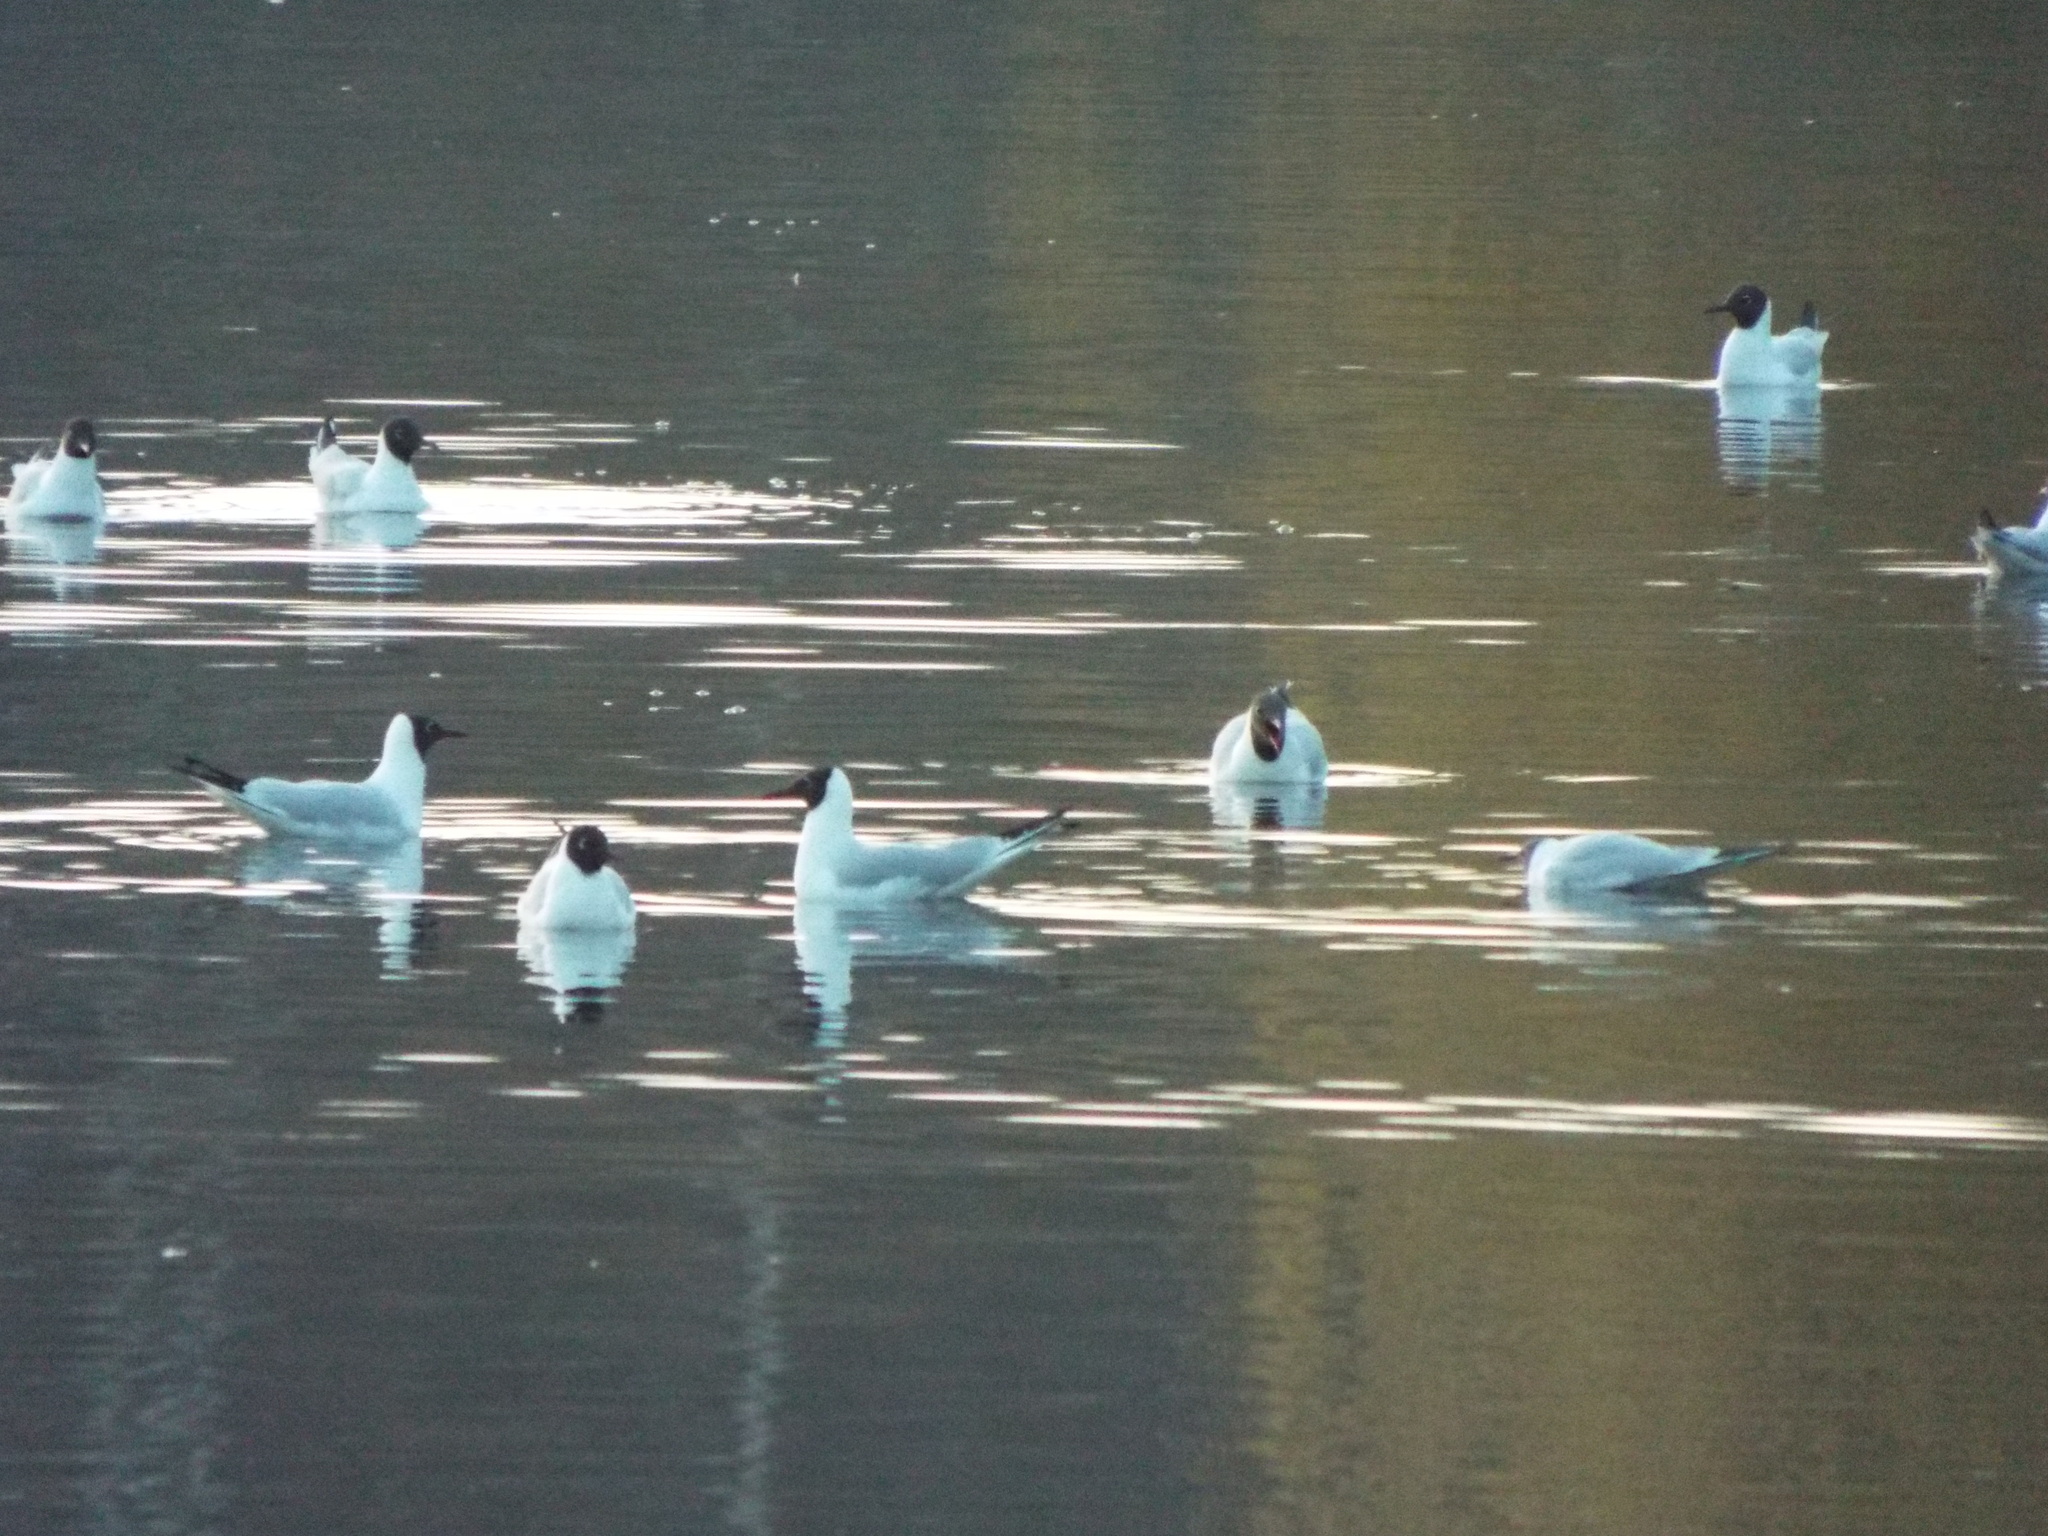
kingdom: Animalia
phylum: Chordata
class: Aves
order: Charadriiformes
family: Laridae
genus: Chroicocephalus
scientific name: Chroicocephalus ridibundus
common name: Black-headed gull
